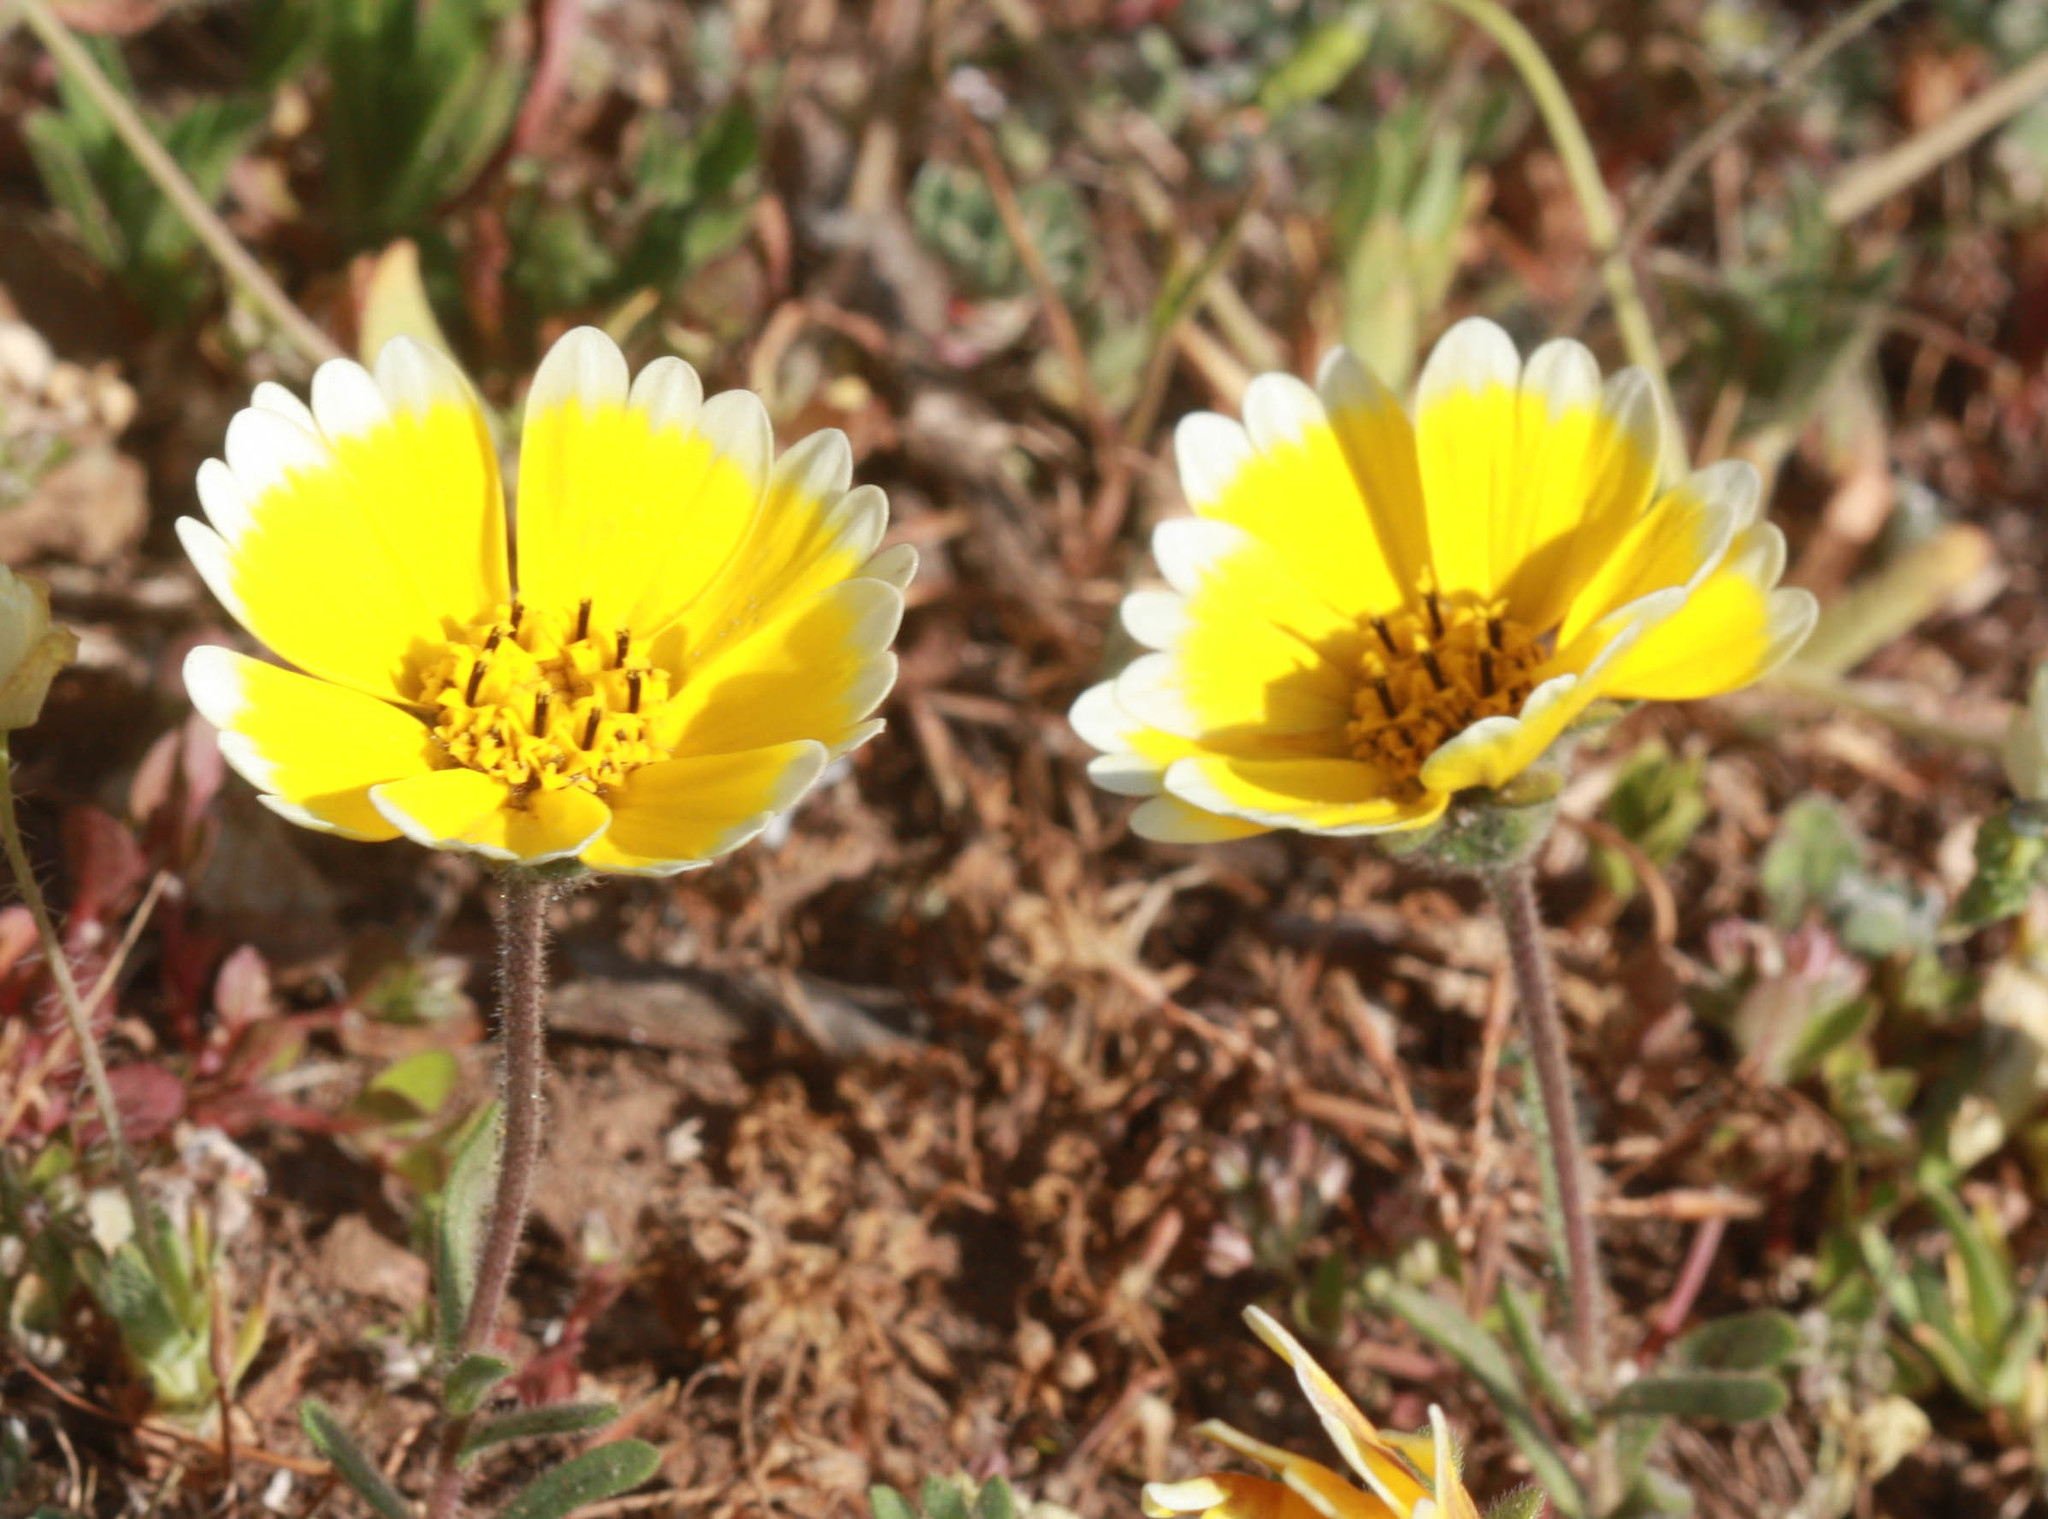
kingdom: Plantae
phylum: Tracheophyta
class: Magnoliopsida
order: Asterales
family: Asteraceae
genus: Layia
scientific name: Layia platyglossa
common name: Tidy-tips
